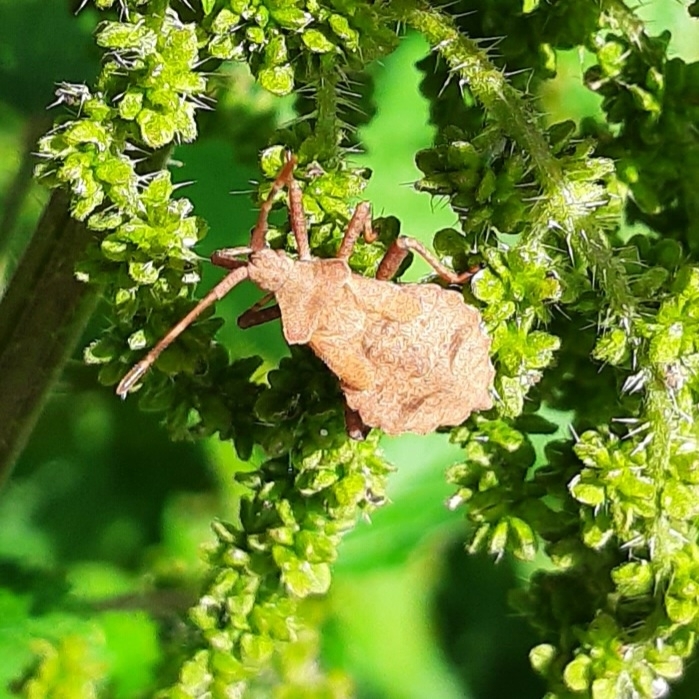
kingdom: Animalia
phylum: Arthropoda
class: Insecta
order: Hemiptera
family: Coreidae
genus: Coreus
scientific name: Coreus marginatus
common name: Dock bug
